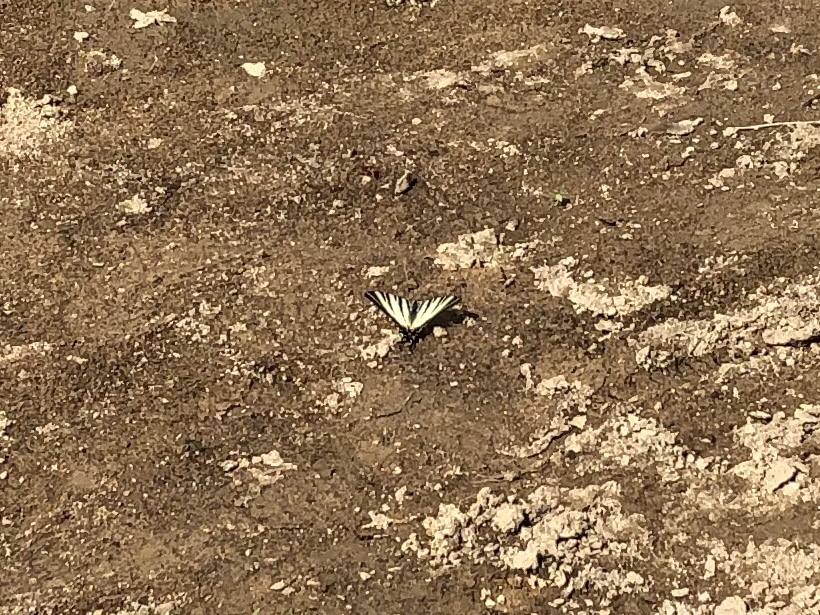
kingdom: Animalia
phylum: Arthropoda
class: Insecta
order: Lepidoptera
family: Papilionidae
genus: Iphiclides
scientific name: Iphiclides podalirius
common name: Scarce swallowtail
